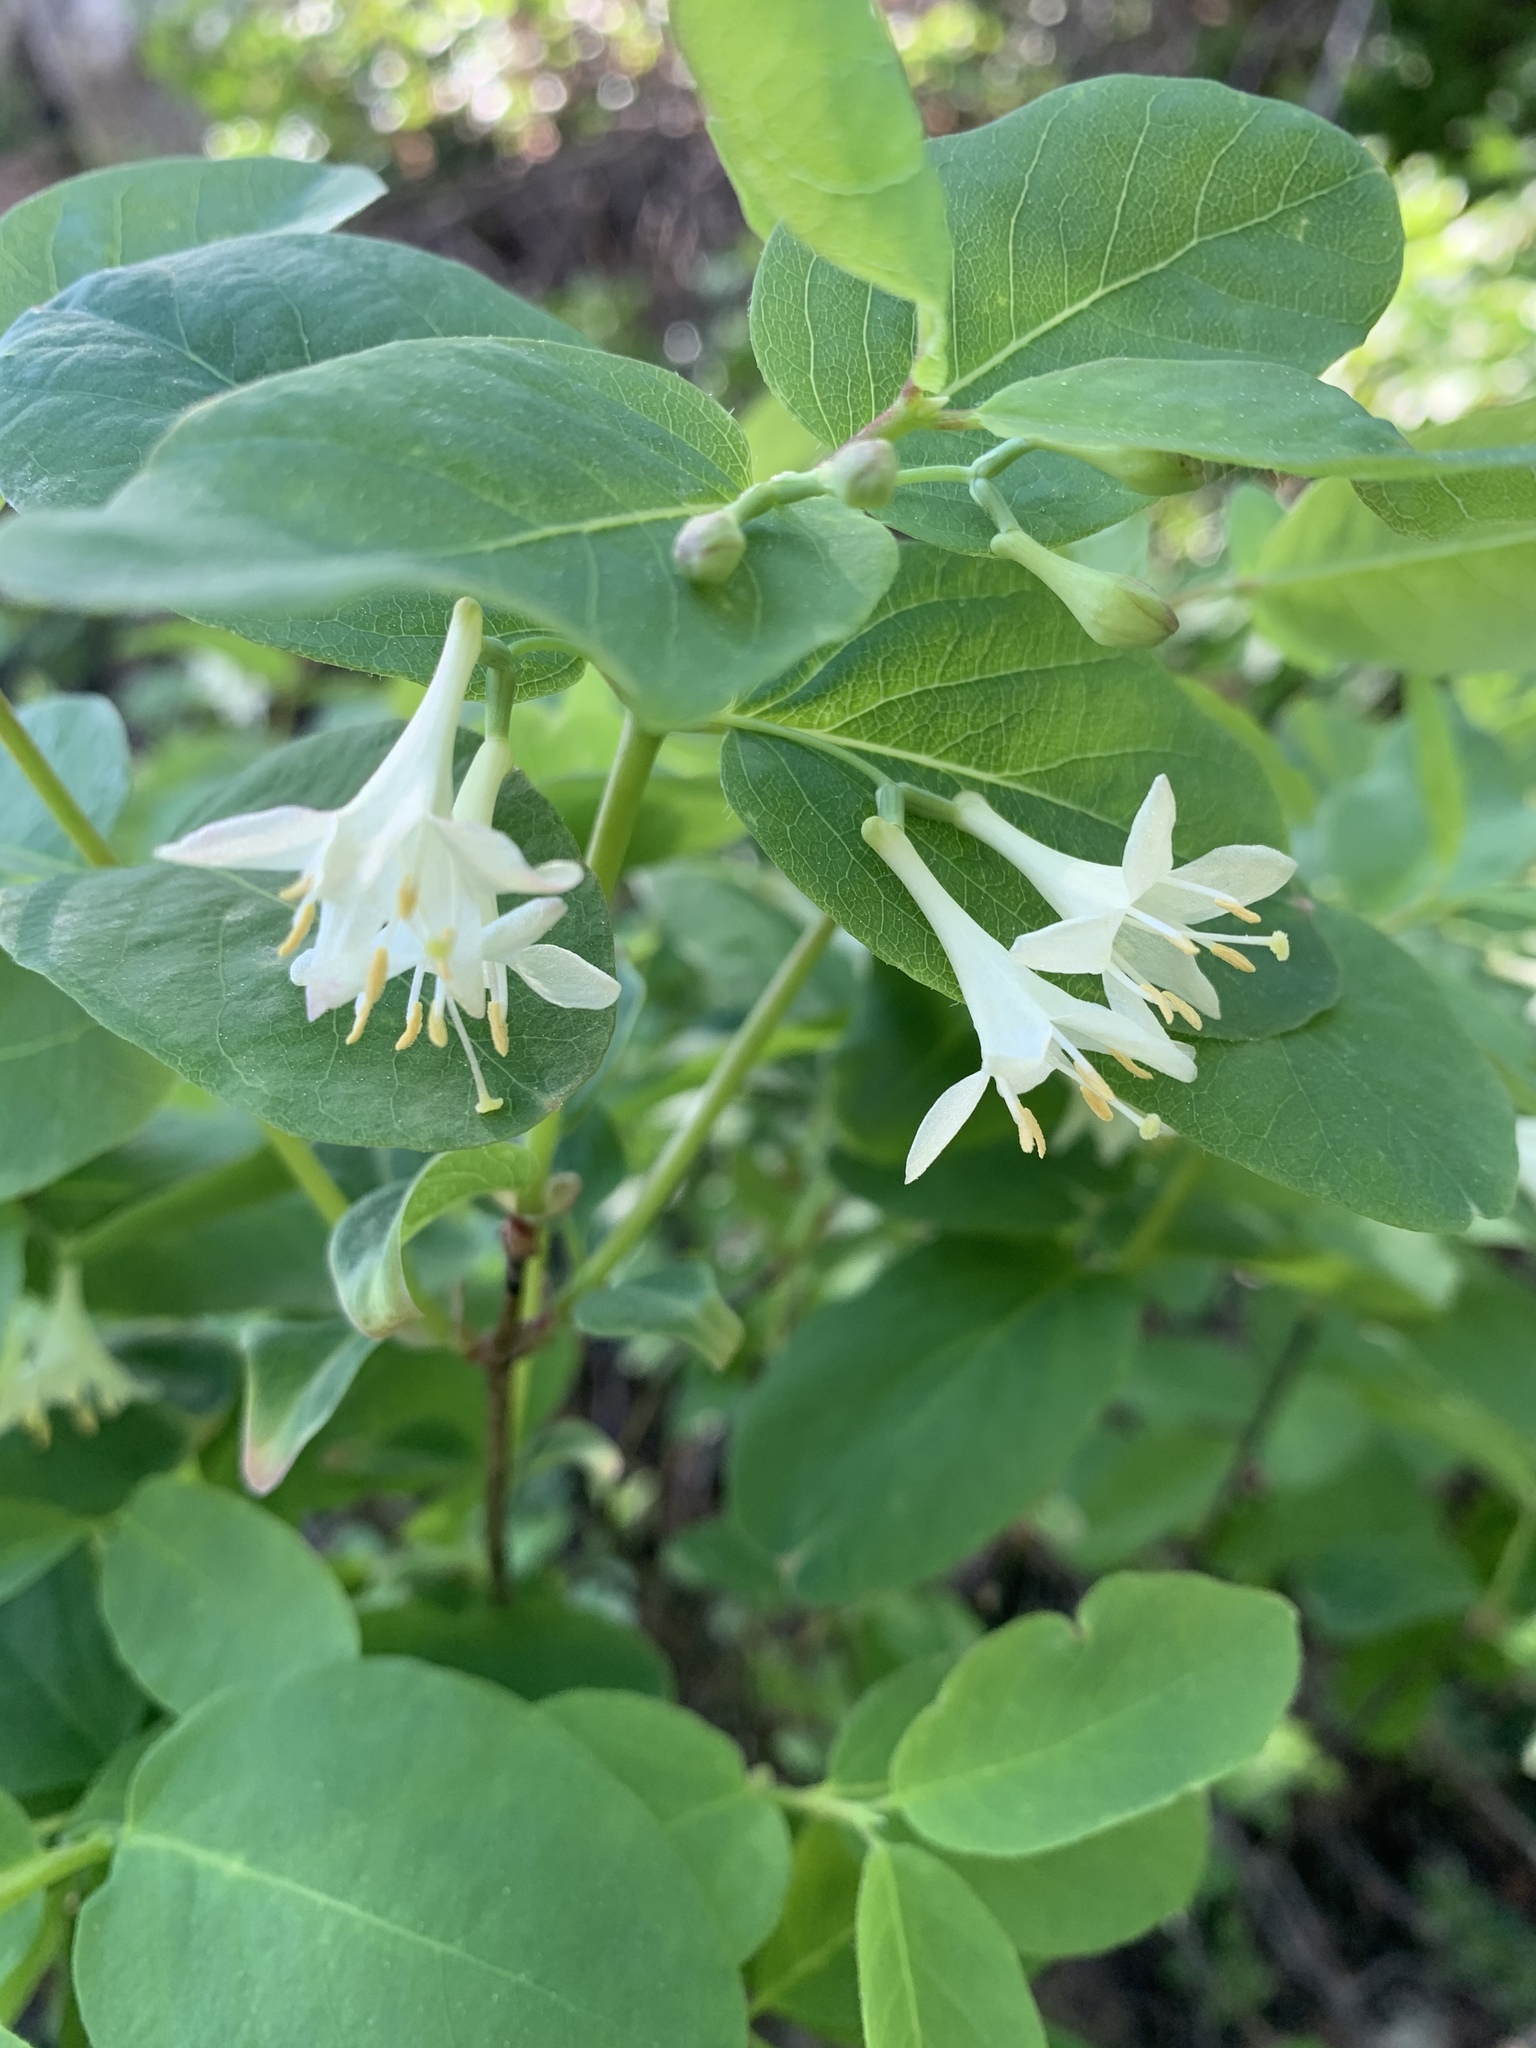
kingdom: Plantae
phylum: Tracheophyta
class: Magnoliopsida
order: Dipsacales
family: Caprifoliaceae
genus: Lonicera
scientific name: Lonicera utahensis
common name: Utah honeysuckle
